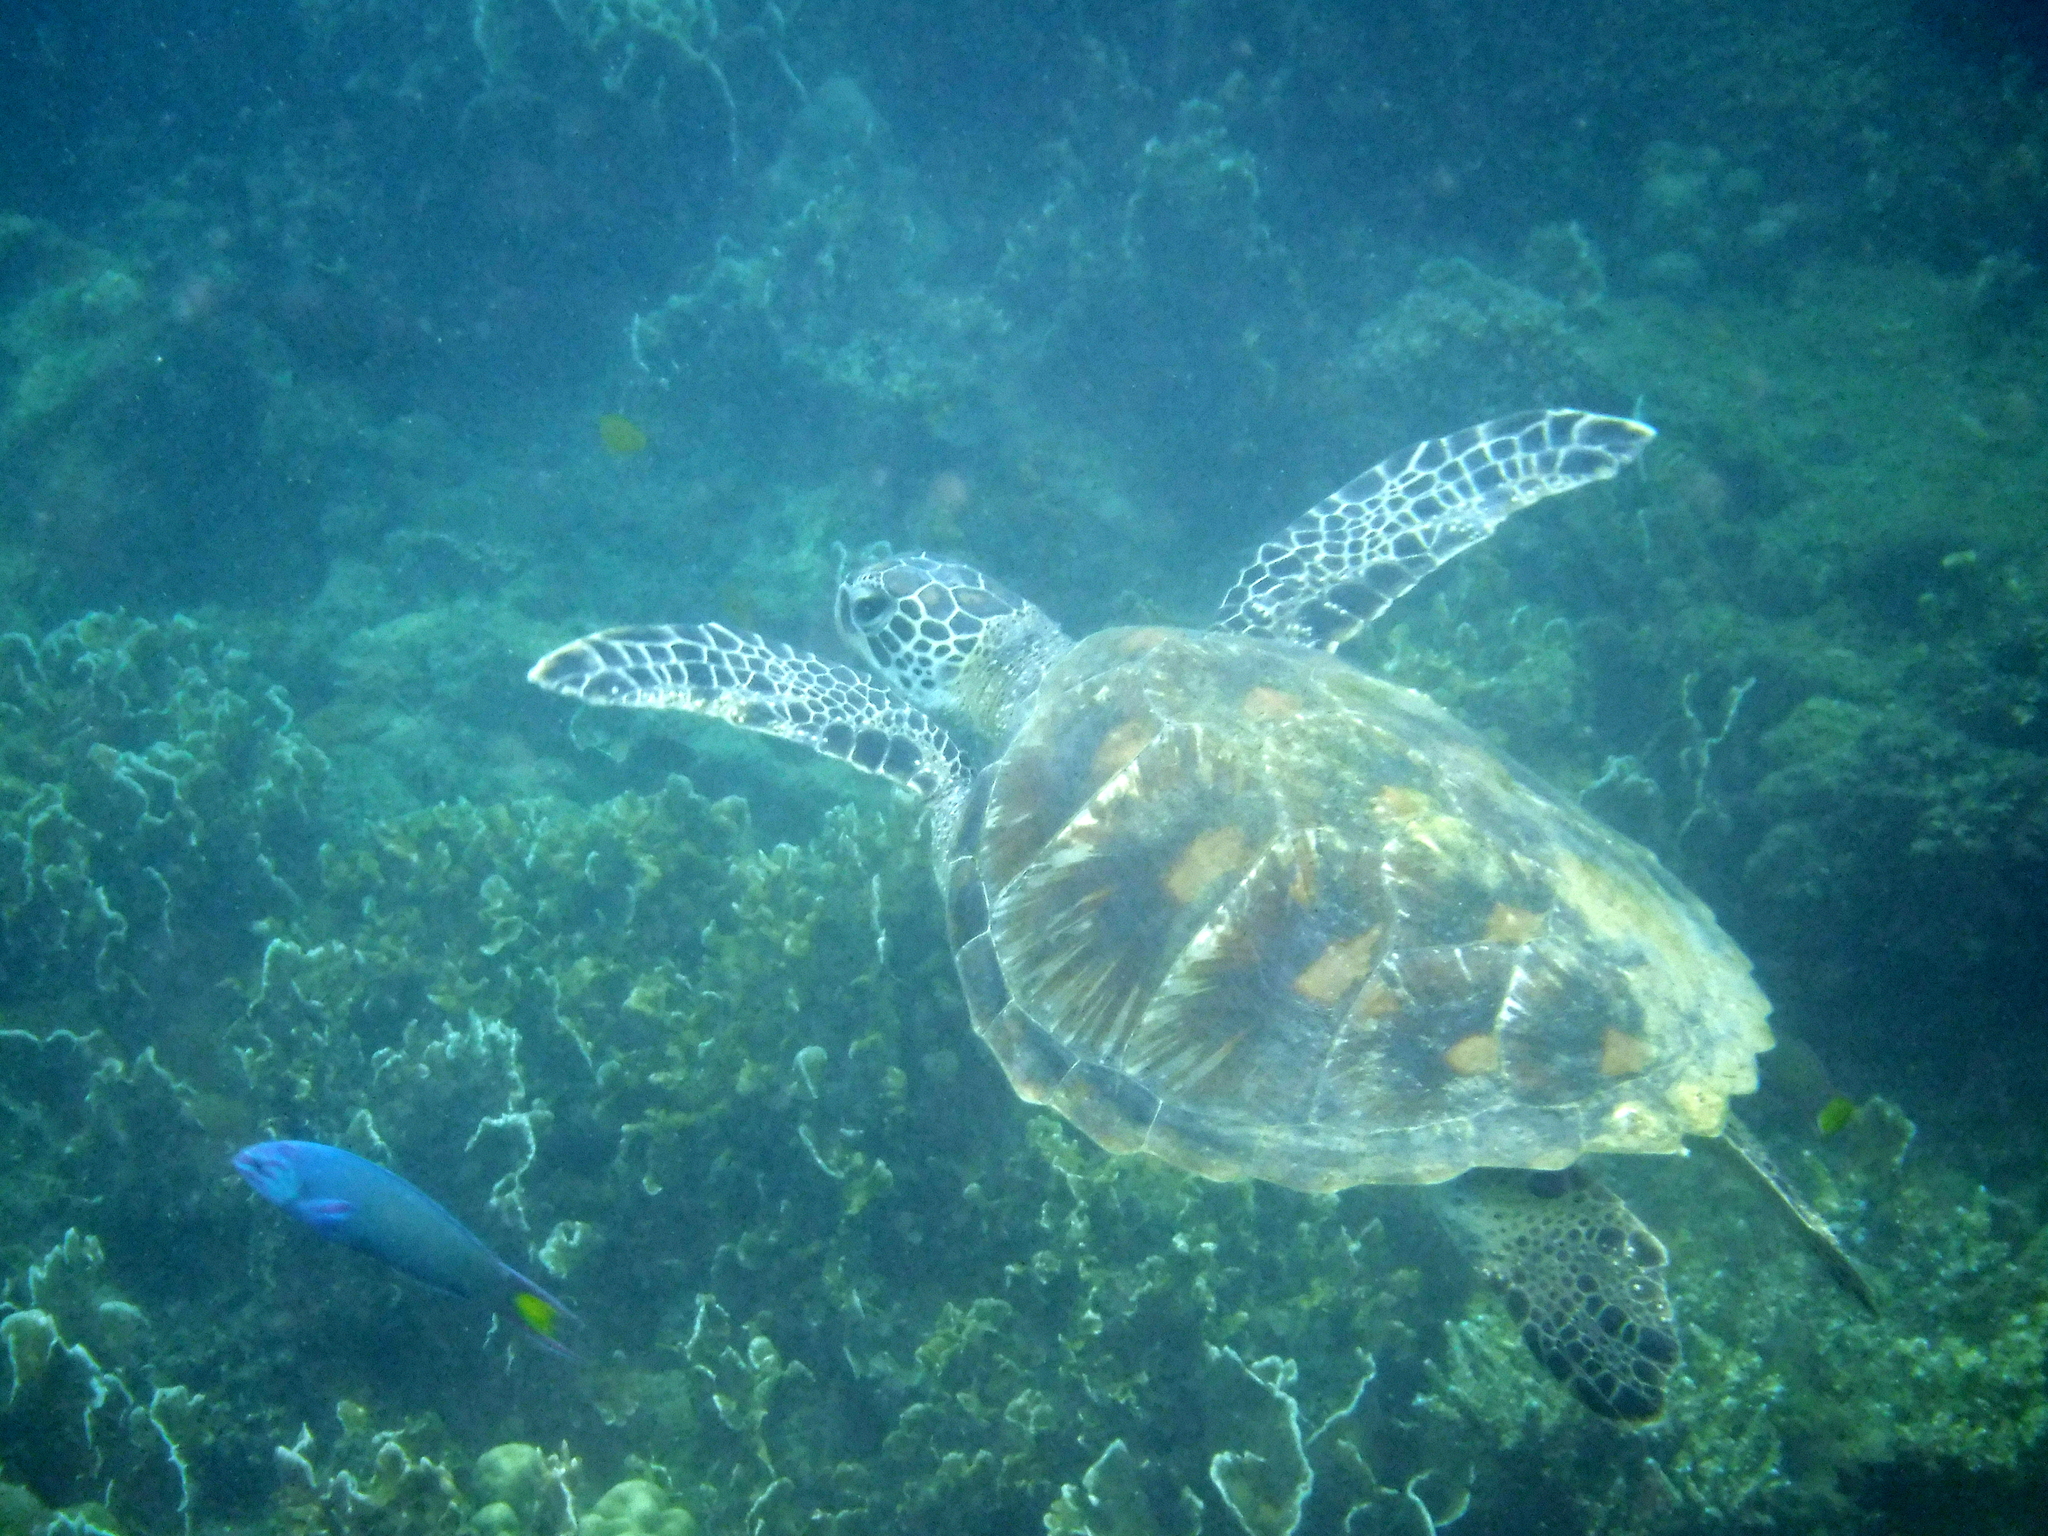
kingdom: Animalia
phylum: Chordata
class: Testudines
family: Cheloniidae
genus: Chelonia
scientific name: Chelonia mydas
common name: Green turtle
